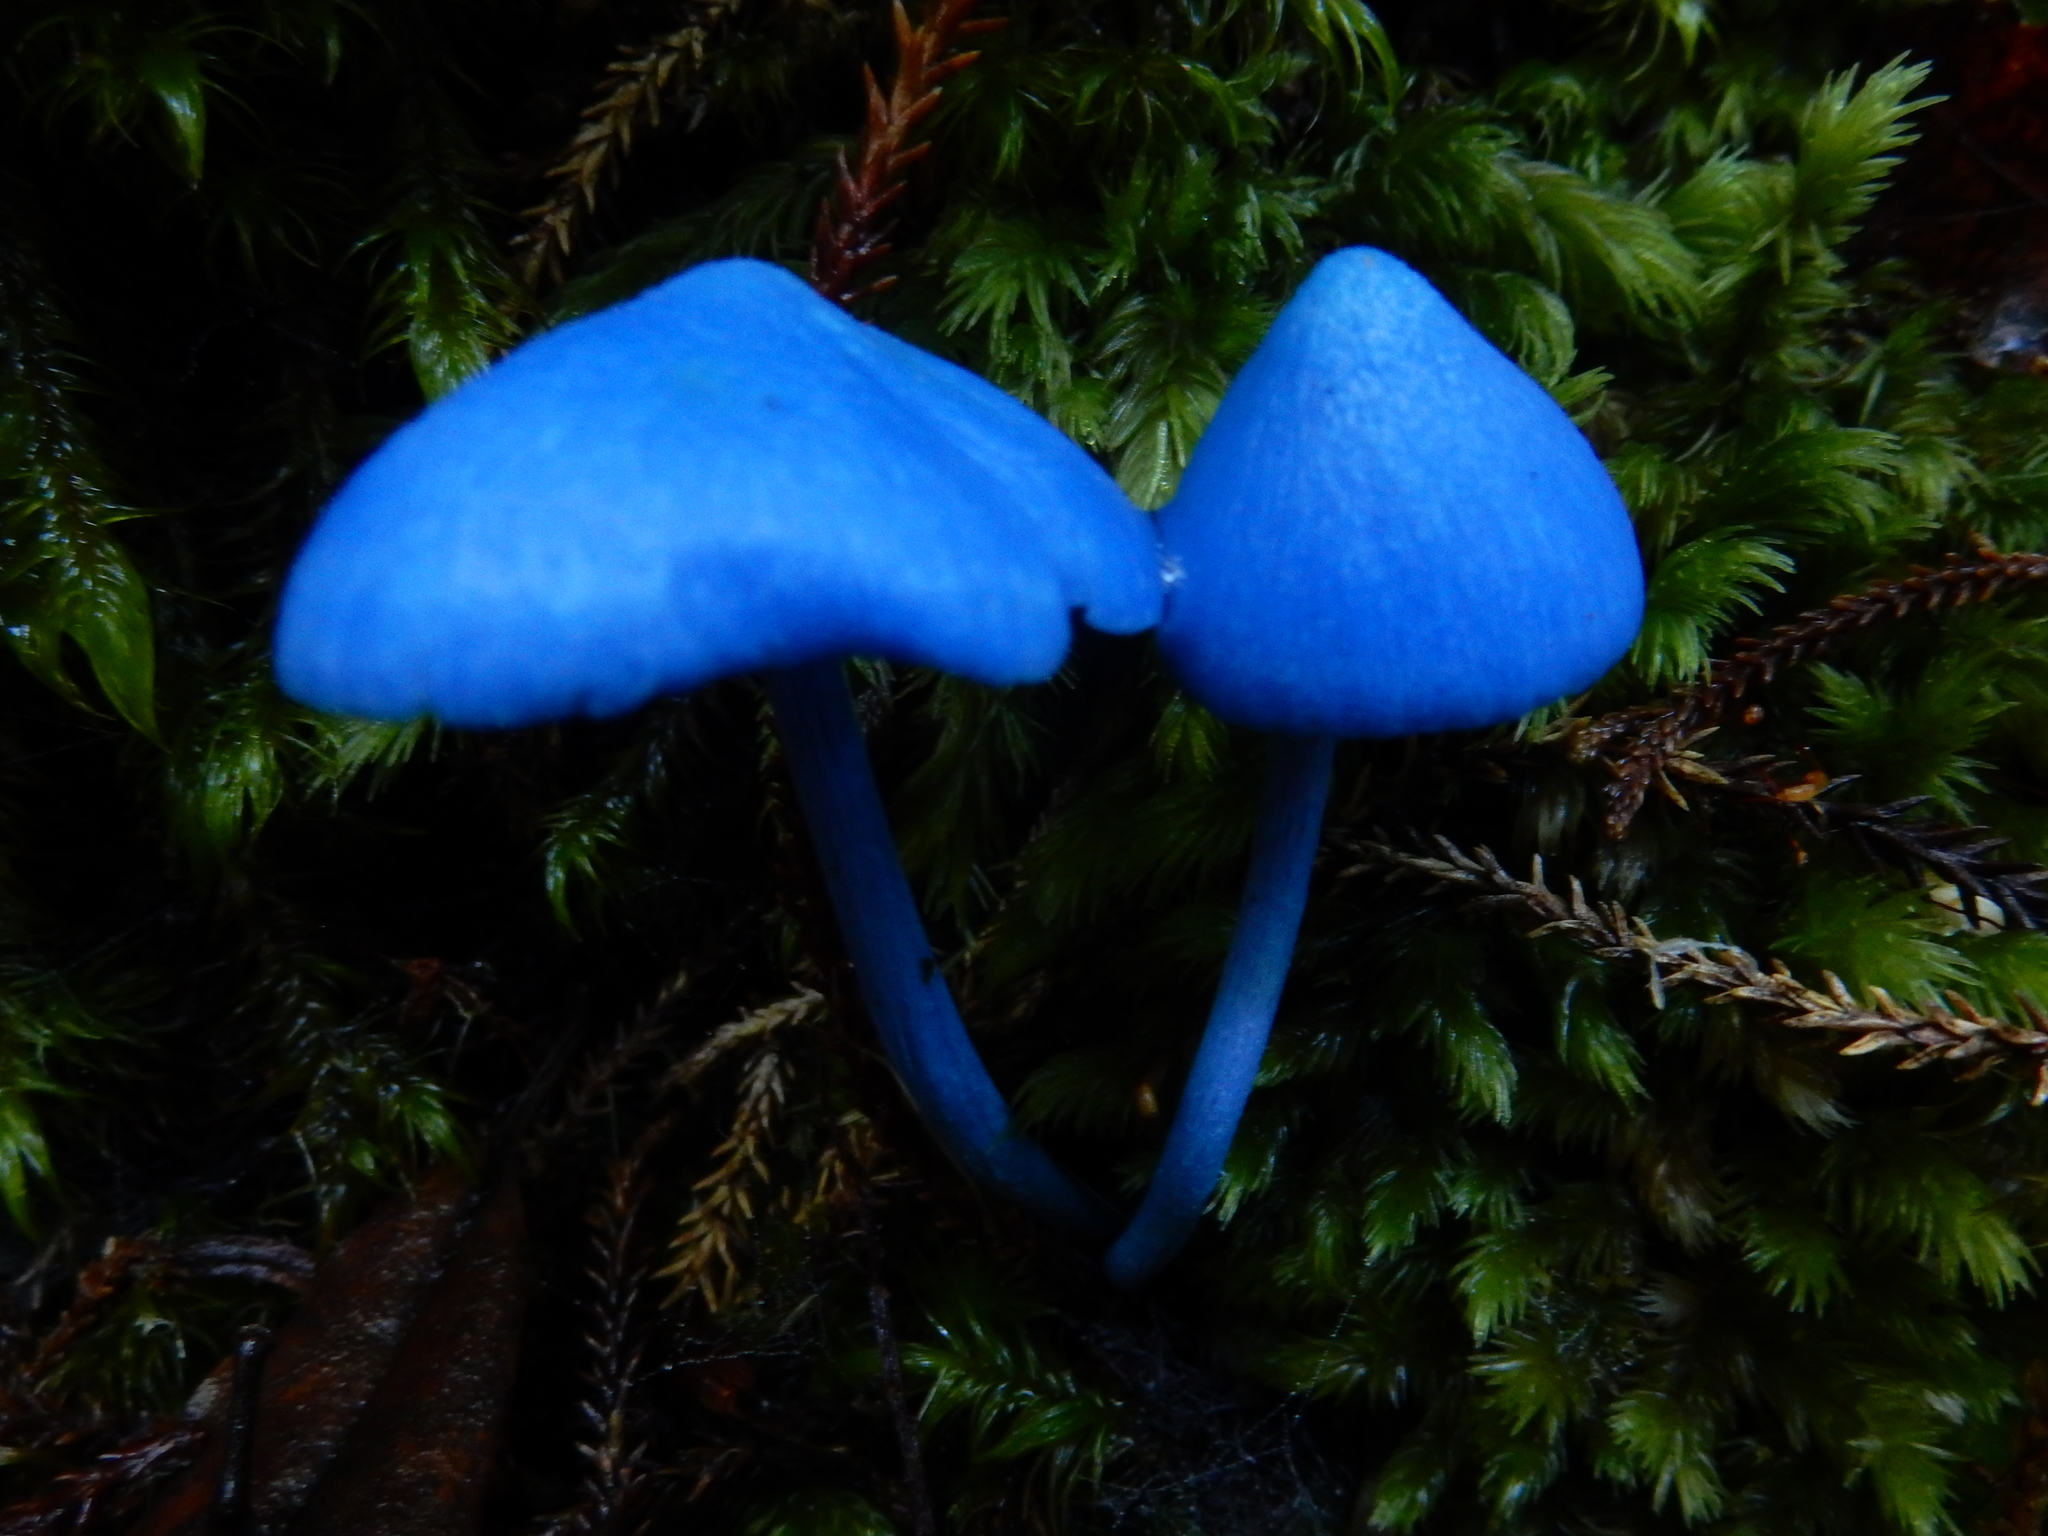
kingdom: Fungi
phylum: Basidiomycota
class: Agaricomycetes
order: Agaricales
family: Entolomataceae
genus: Entoloma
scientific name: Entoloma hochstetteri
